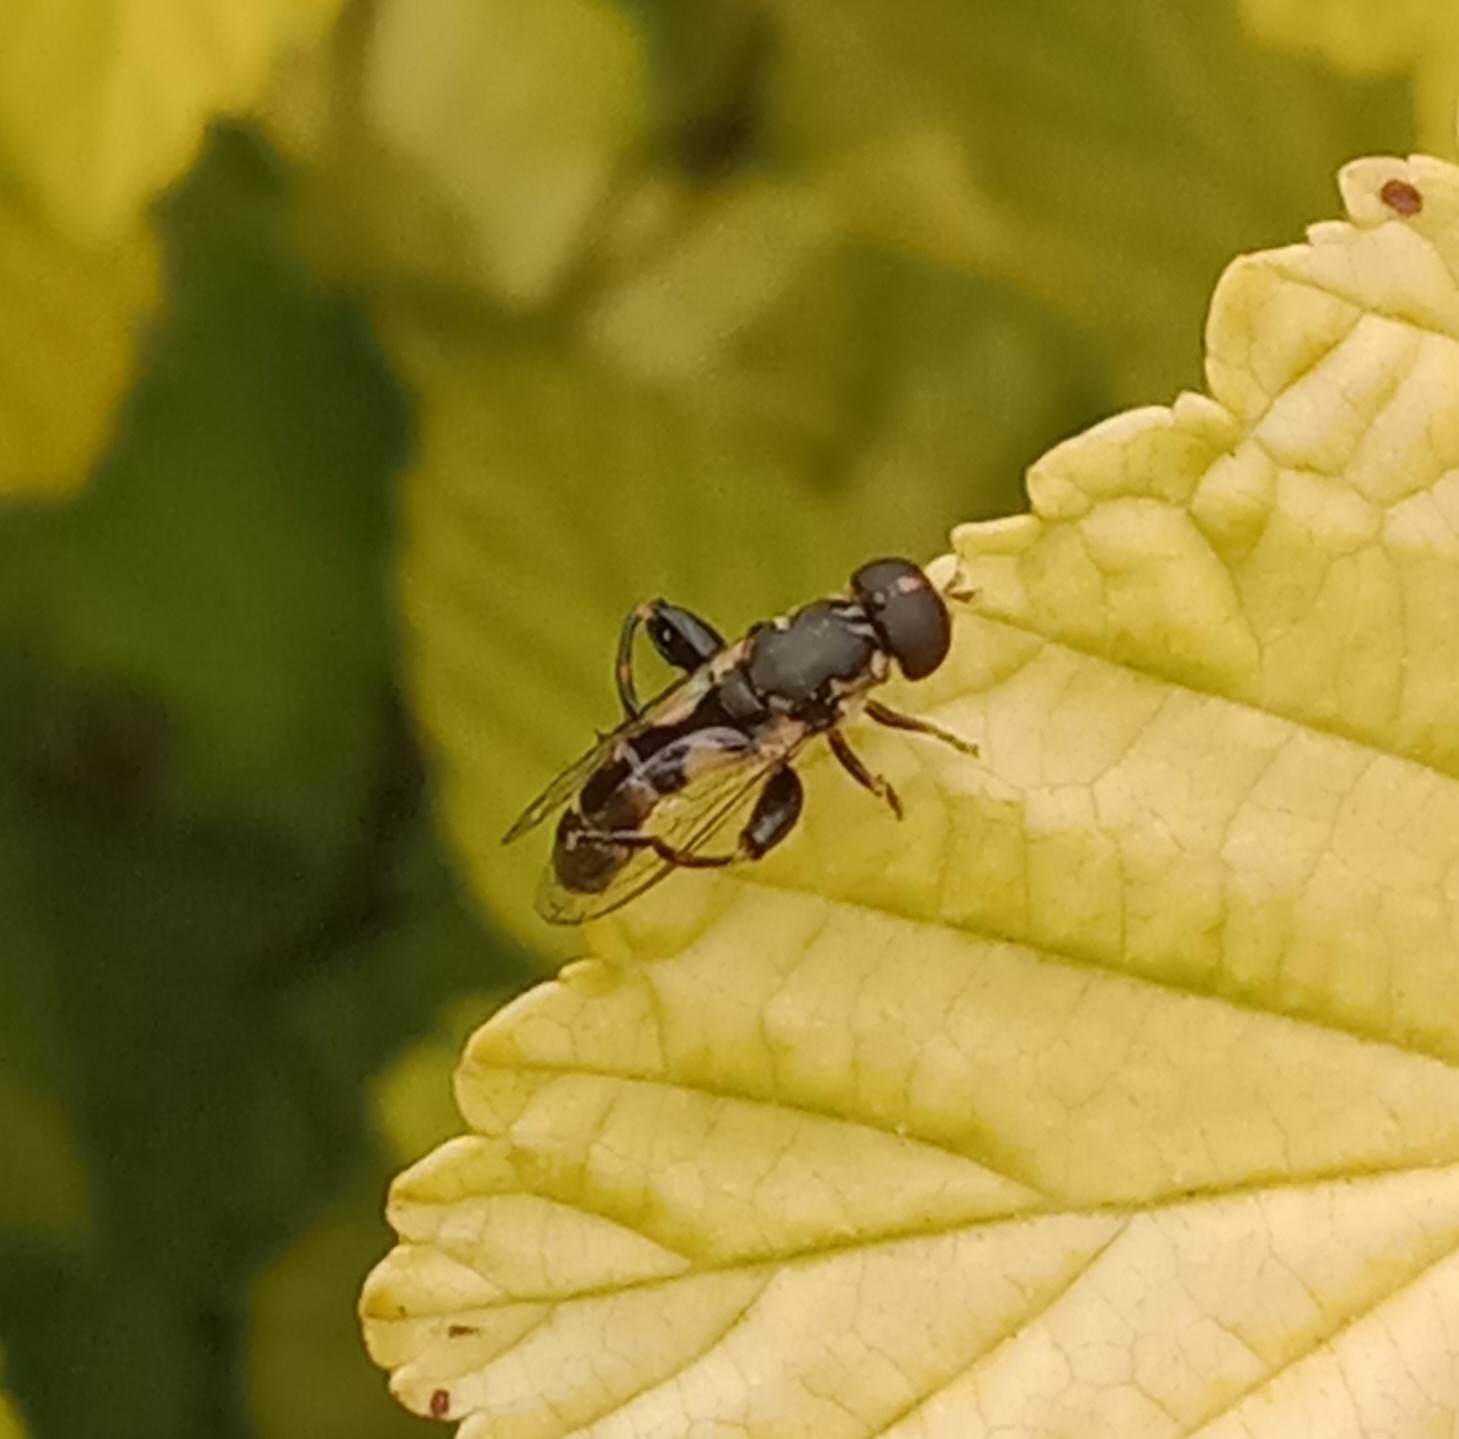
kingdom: Animalia
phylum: Arthropoda
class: Insecta
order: Diptera
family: Syrphidae
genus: Syritta
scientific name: Syritta pipiens
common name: Hover fly
